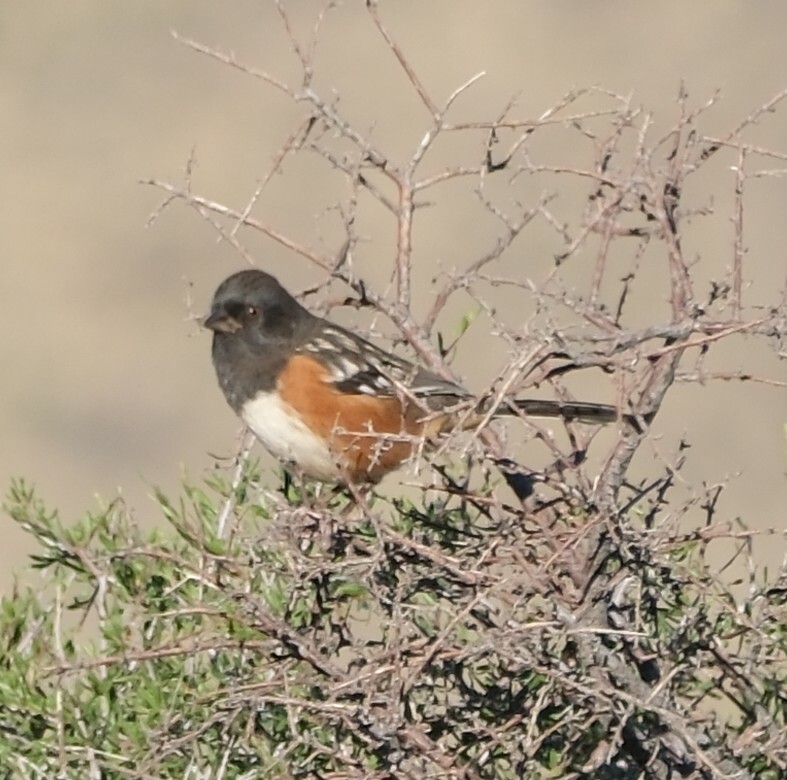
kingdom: Animalia
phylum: Chordata
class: Aves
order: Passeriformes
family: Passerellidae
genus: Pipilo
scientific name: Pipilo maculatus
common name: Spotted towhee
